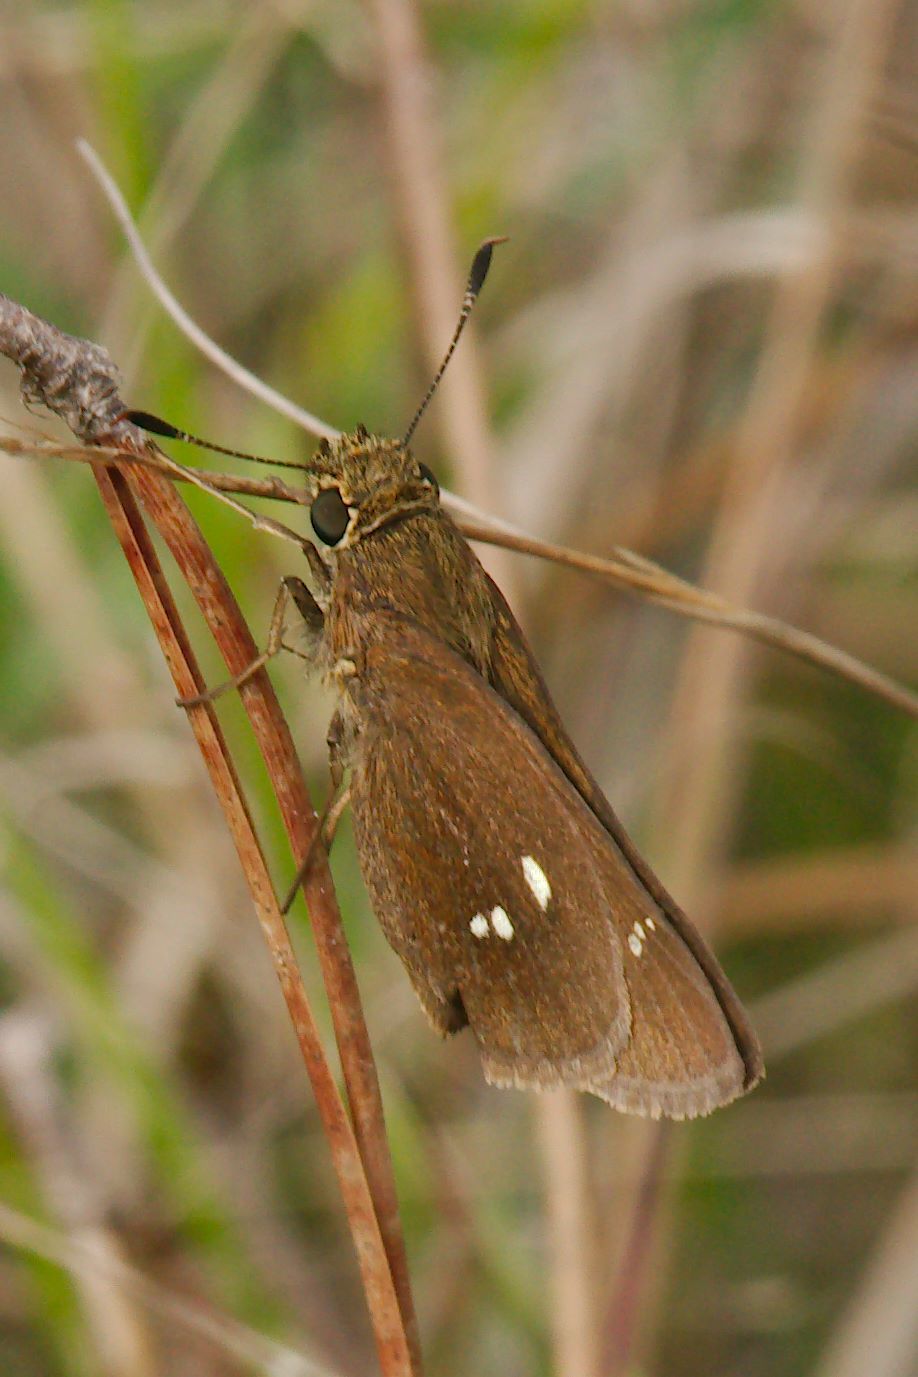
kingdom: Animalia
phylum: Arthropoda
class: Insecta
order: Lepidoptera
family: Hesperiidae
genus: Oligoria
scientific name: Oligoria maculata
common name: Twin-spot skipper
